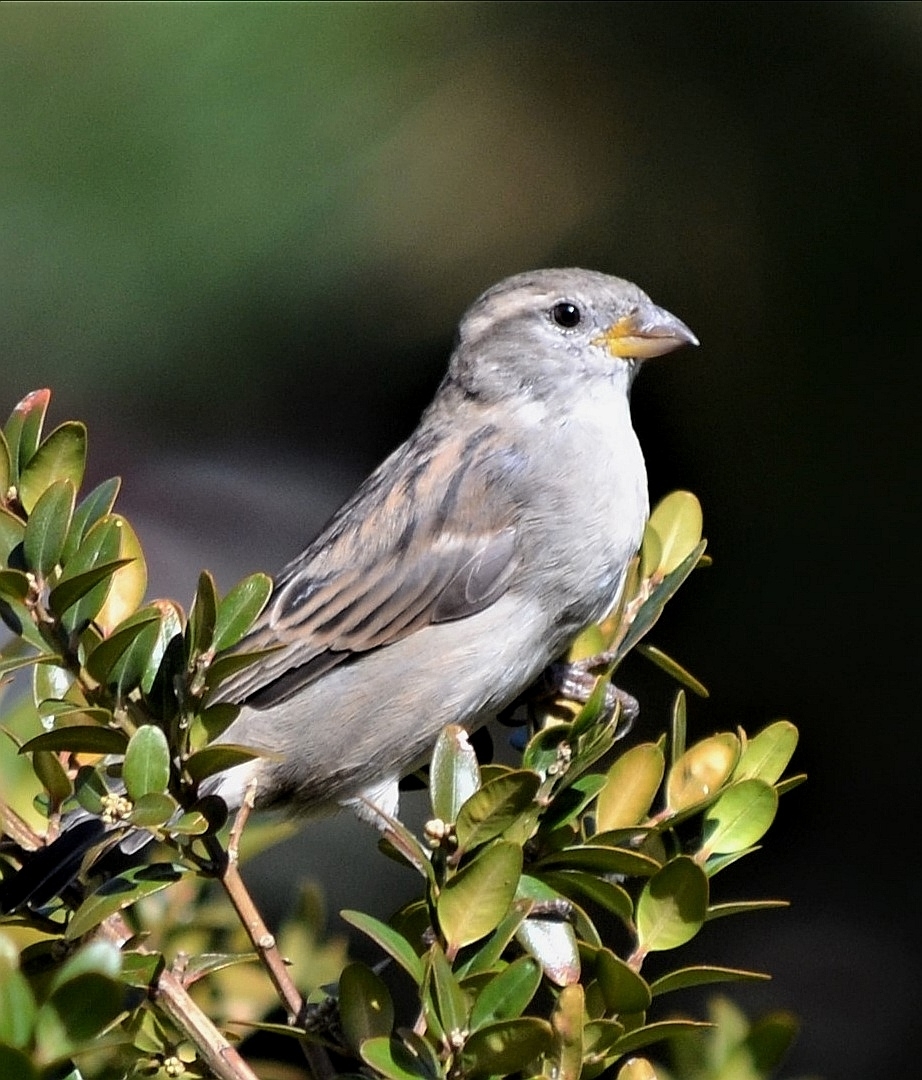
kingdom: Animalia
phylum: Chordata
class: Aves
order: Passeriformes
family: Passeridae
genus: Passer
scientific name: Passer domesticus
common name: House sparrow
